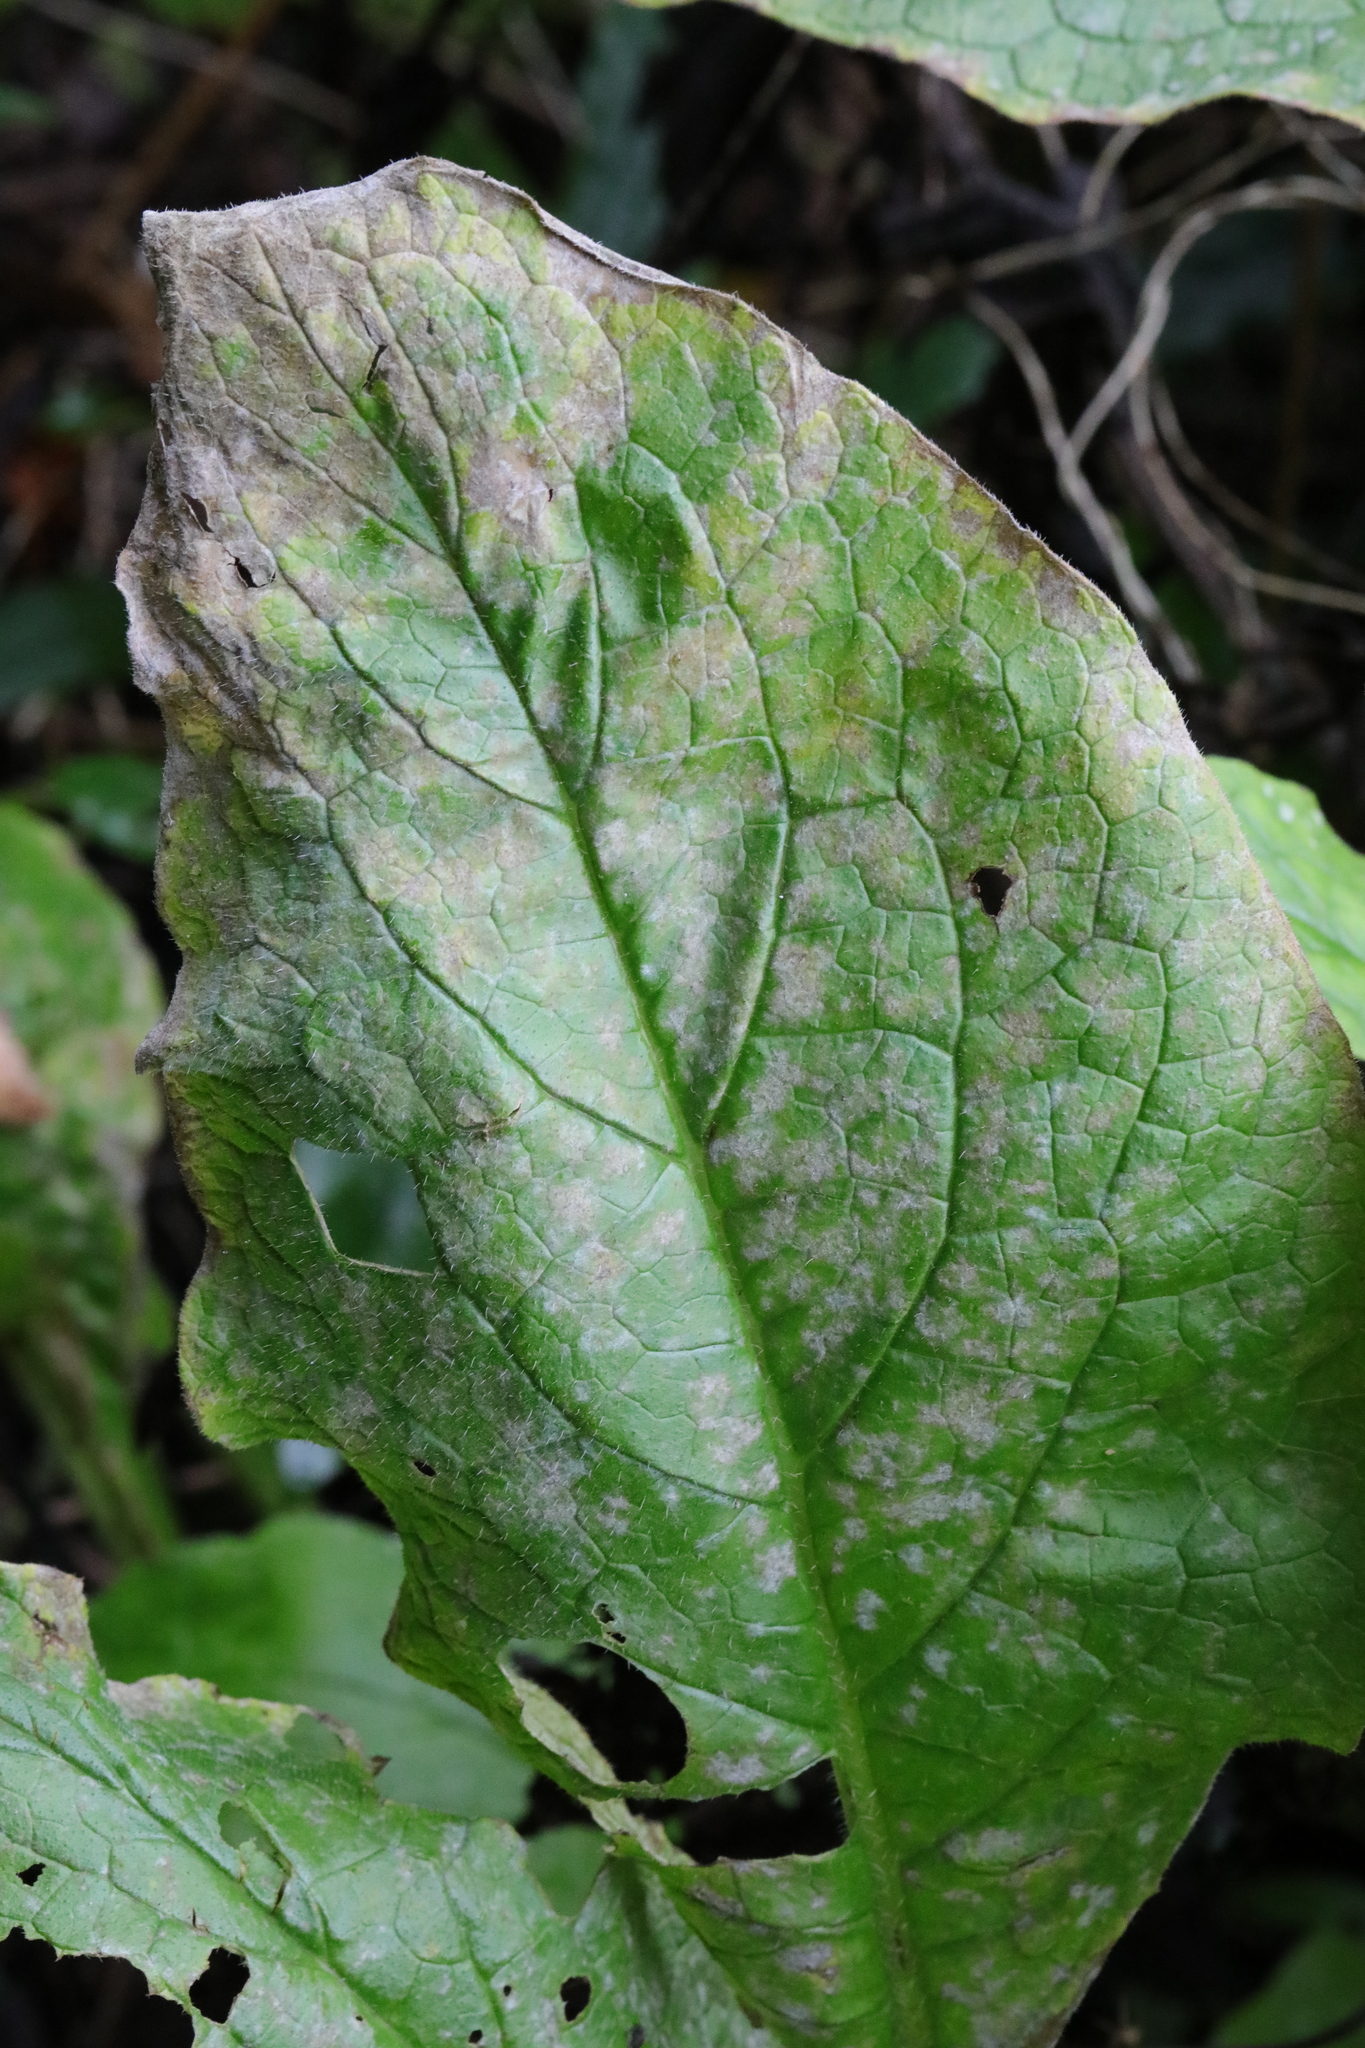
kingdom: Fungi
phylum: Ascomycota
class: Leotiomycetes
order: Helotiales
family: Erysiphaceae
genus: Golovinomyces
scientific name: Golovinomyces cynoglossi
